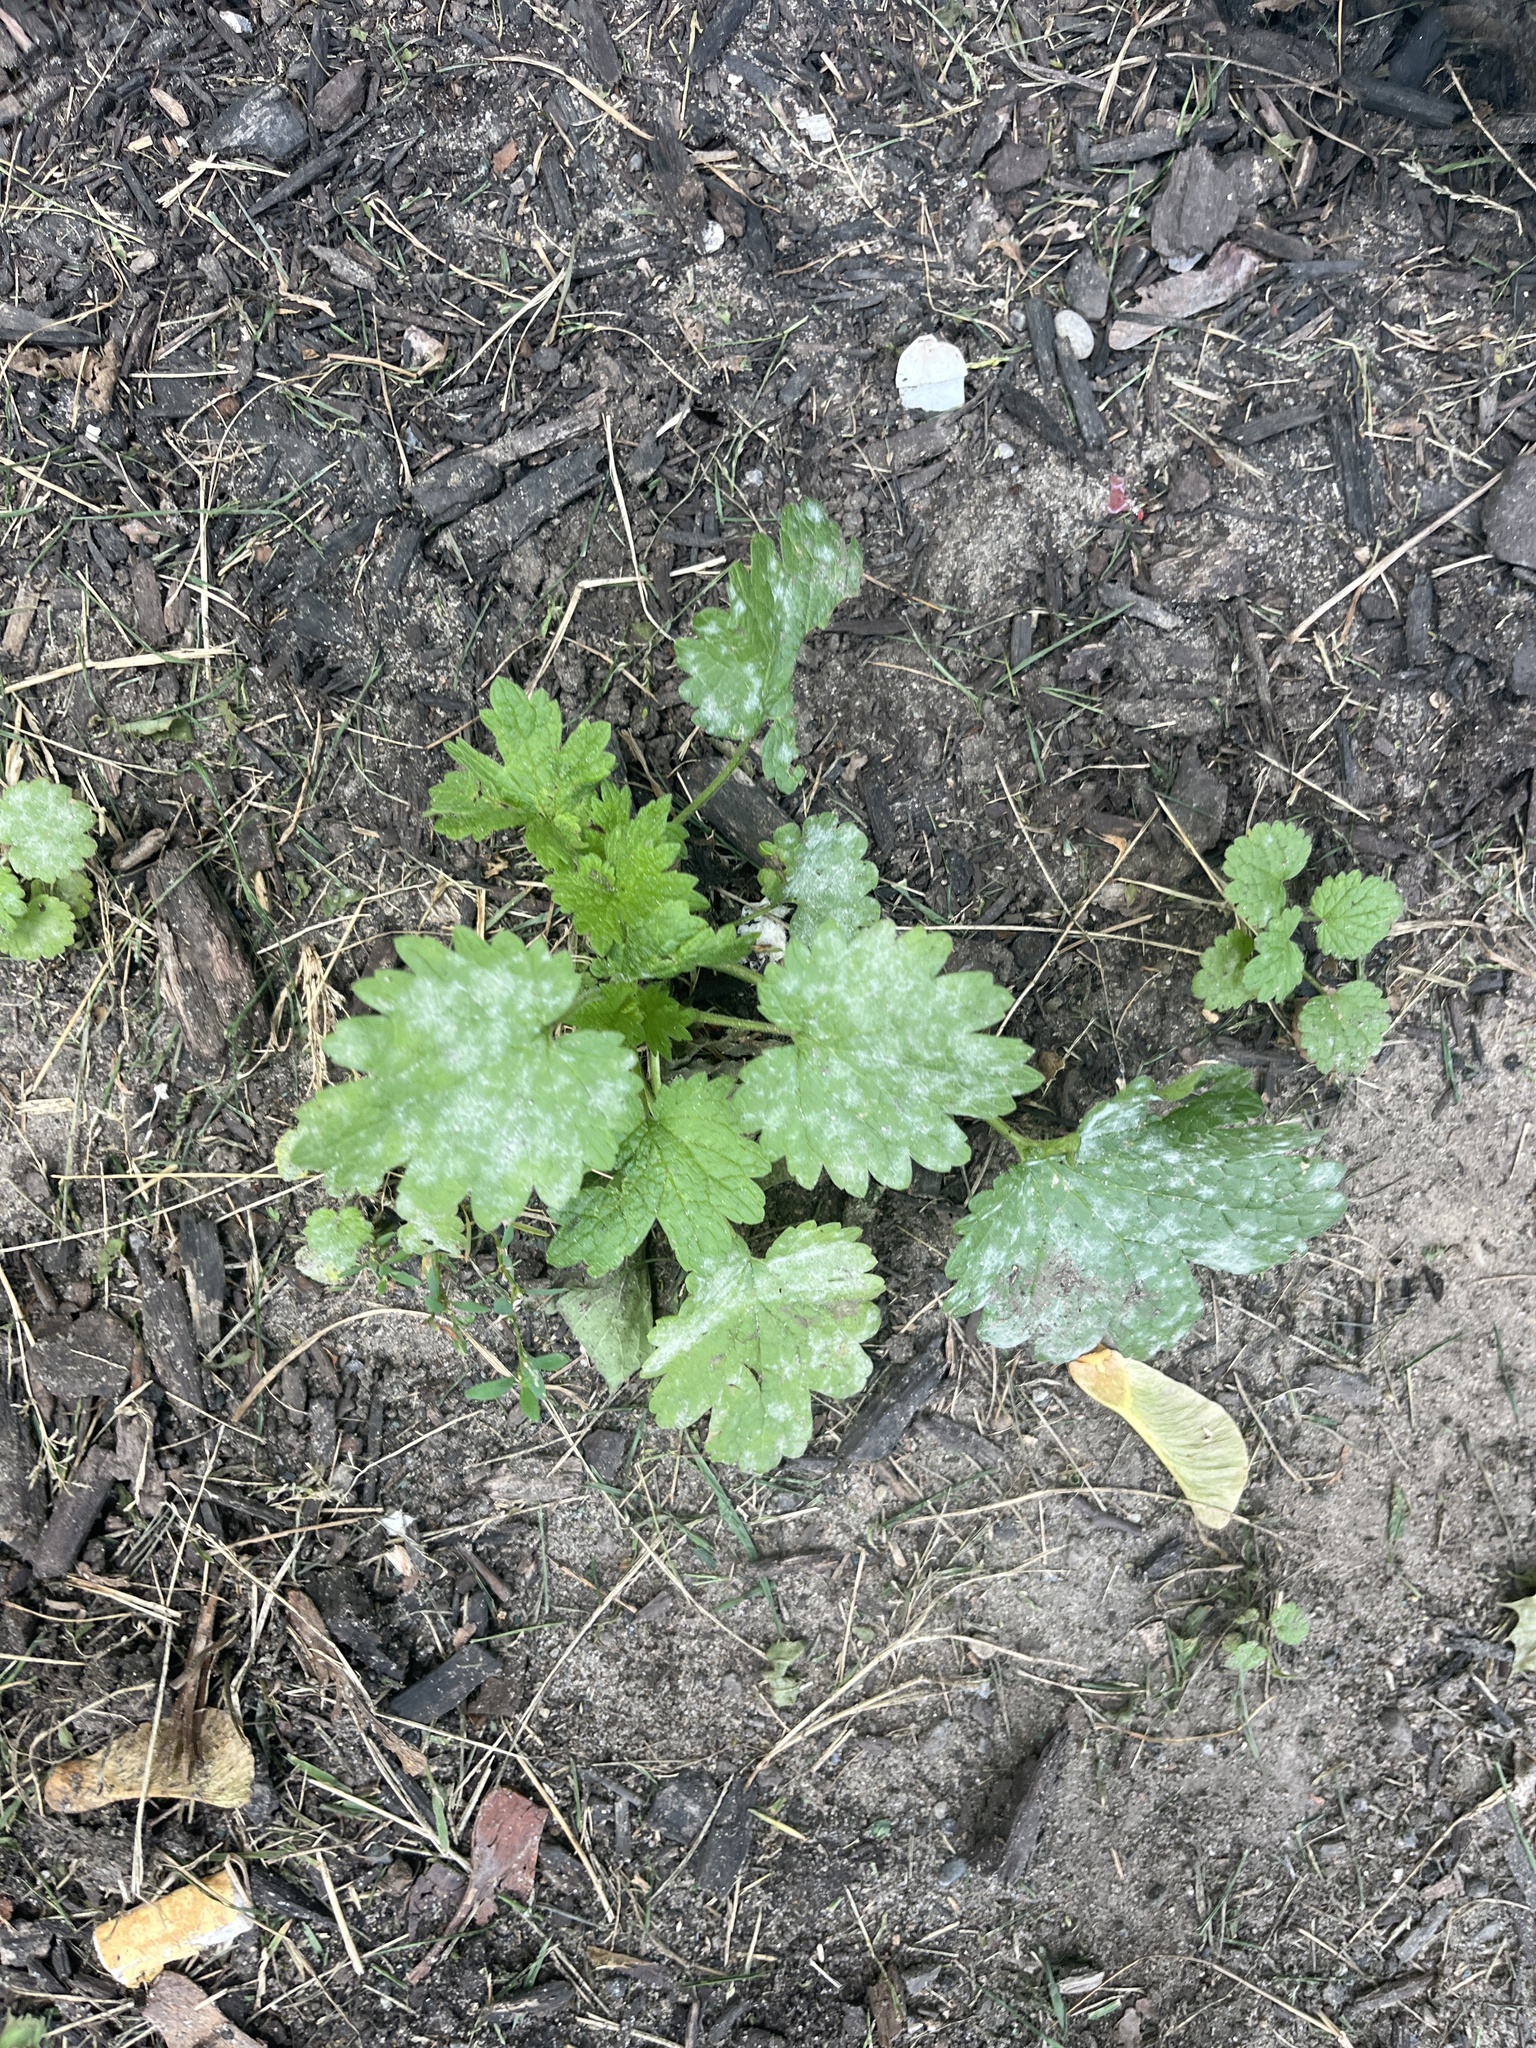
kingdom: Plantae
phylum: Tracheophyta
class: Magnoliopsida
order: Lamiales
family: Lamiaceae
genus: Leonurus
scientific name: Leonurus cardiaca
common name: Motherwort
